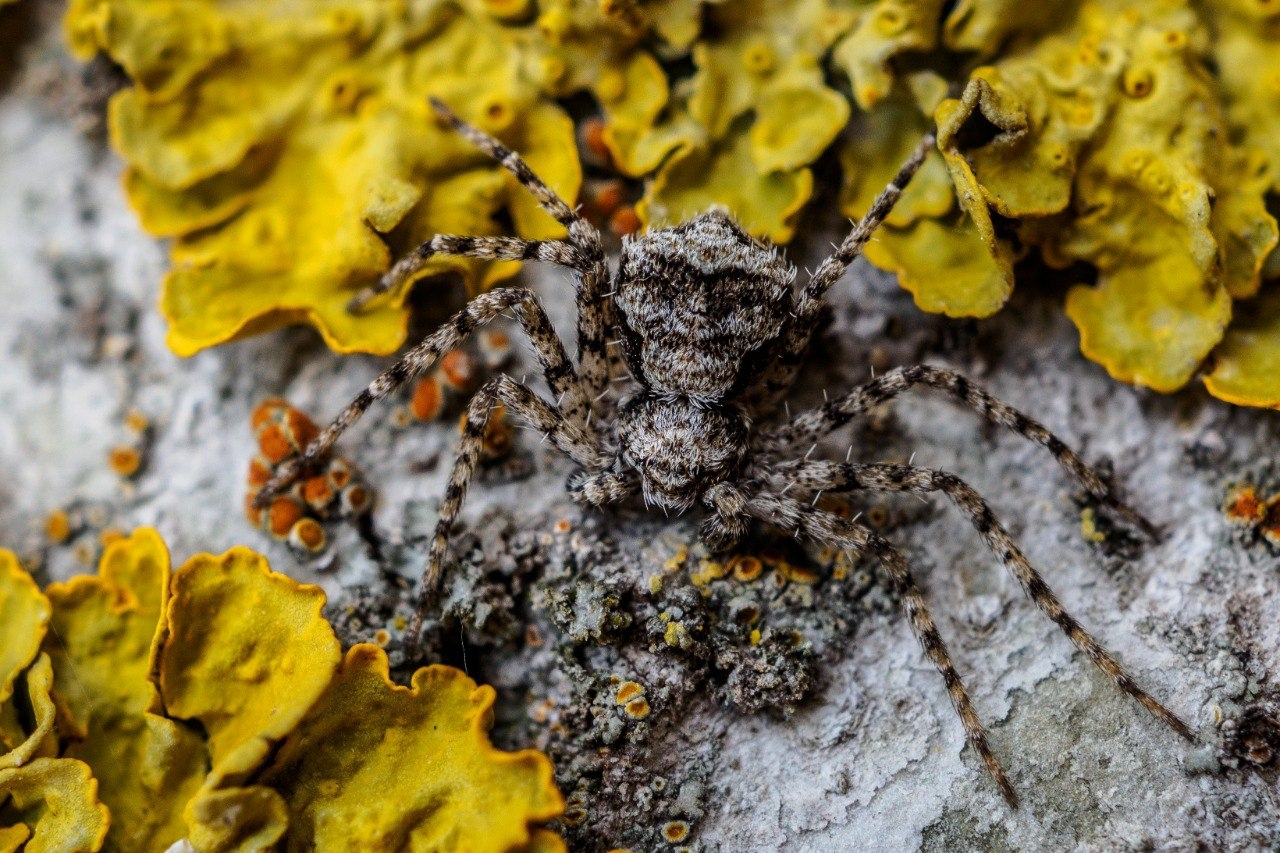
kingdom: Animalia
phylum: Arthropoda
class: Arachnida
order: Araneae
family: Philodromidae
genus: Philodromus
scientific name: Philodromus poecilus
